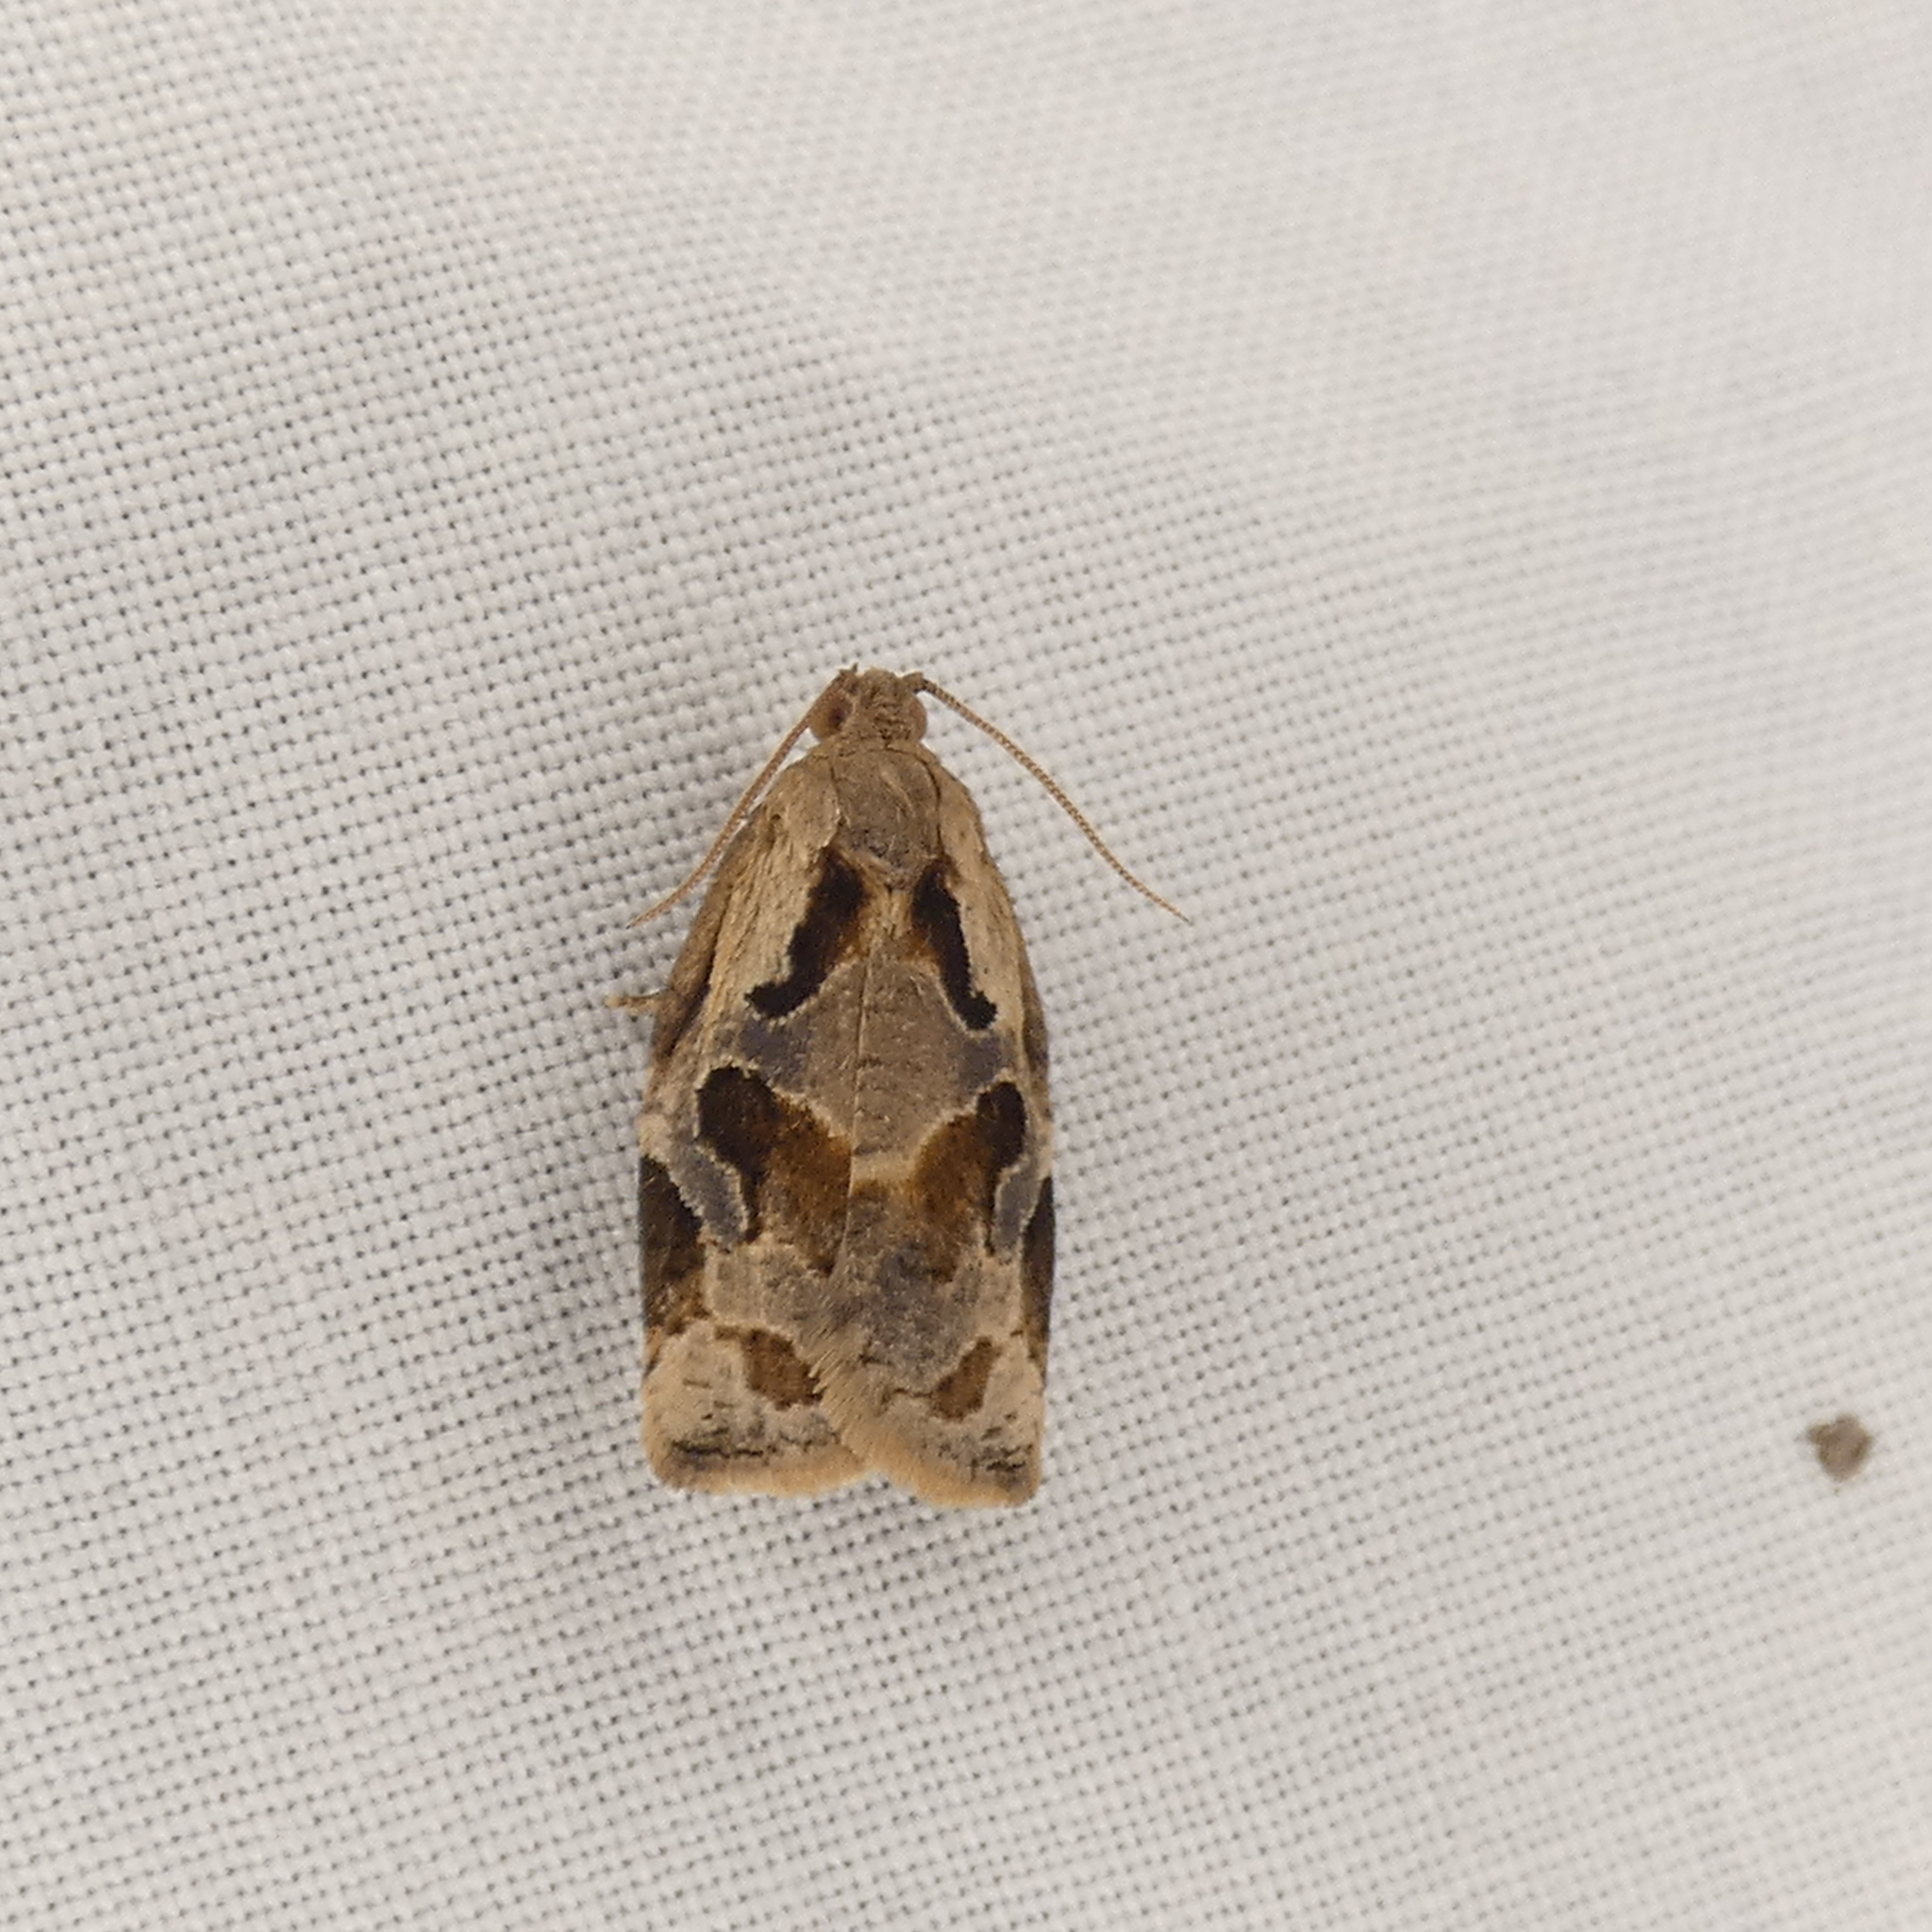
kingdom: Animalia
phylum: Arthropoda
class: Insecta
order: Lepidoptera
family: Tortricidae
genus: Archips
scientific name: Archips grisea
